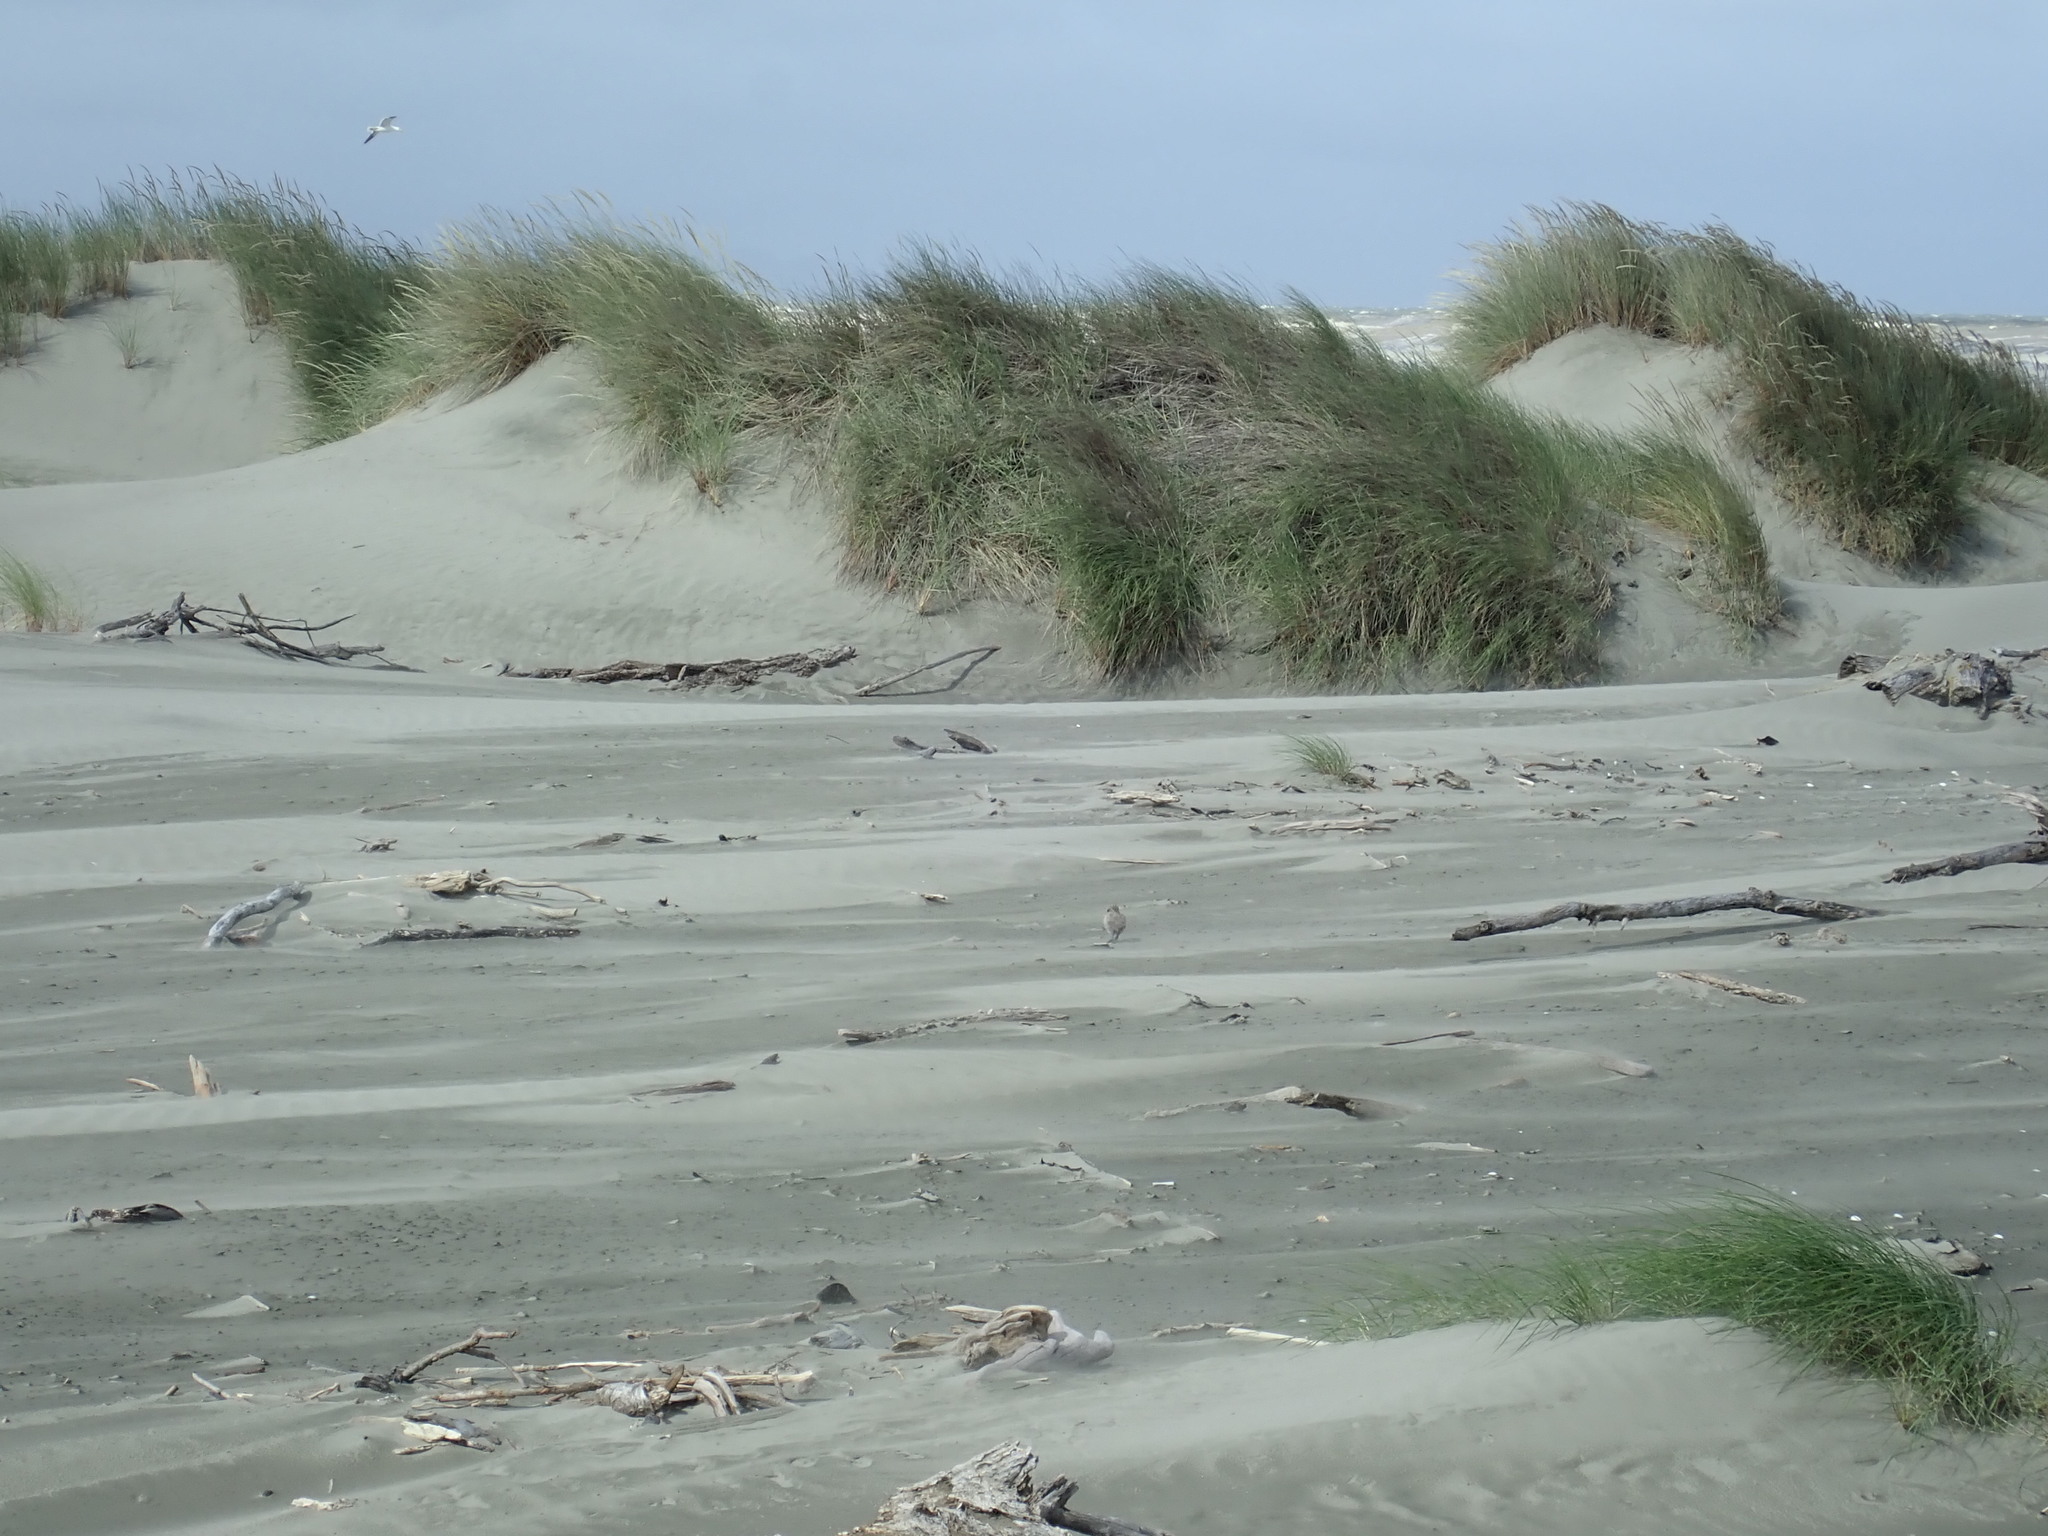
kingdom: Animalia
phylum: Chordata
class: Aves
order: Charadriiformes
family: Haematopodidae
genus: Haematopus
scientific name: Haematopus unicolor
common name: Variable oystercatcher
